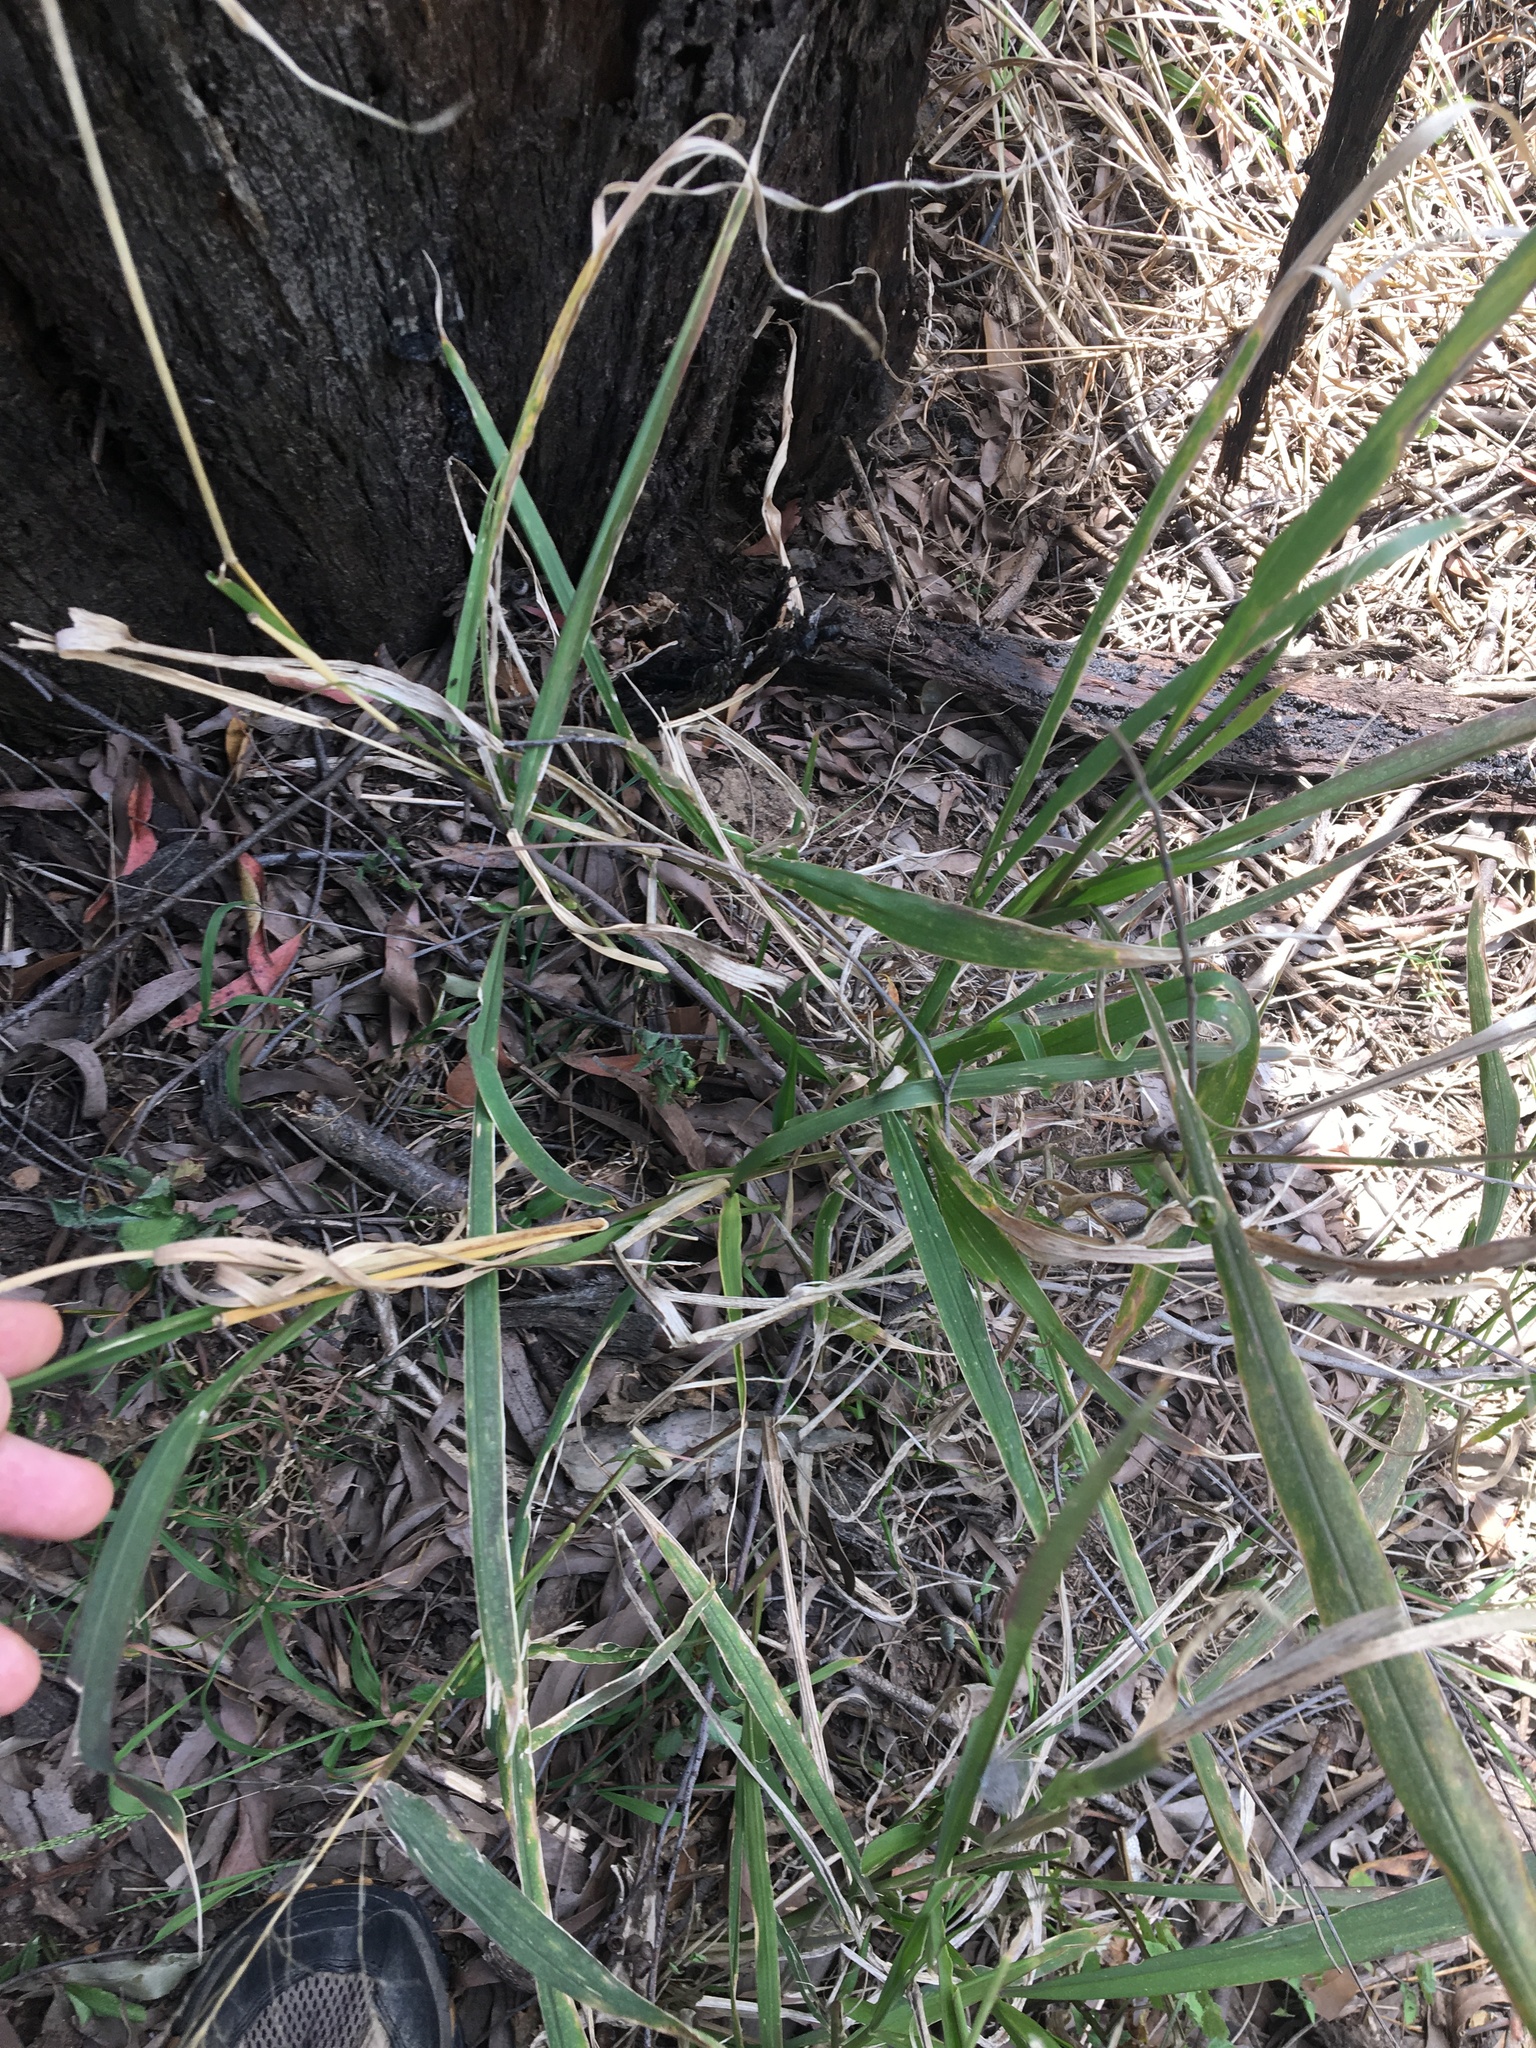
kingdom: Plantae
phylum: Tracheophyta
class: Liliopsida
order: Poales
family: Poaceae
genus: Megathyrsus
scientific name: Megathyrsus maximus
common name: Guineagrass
